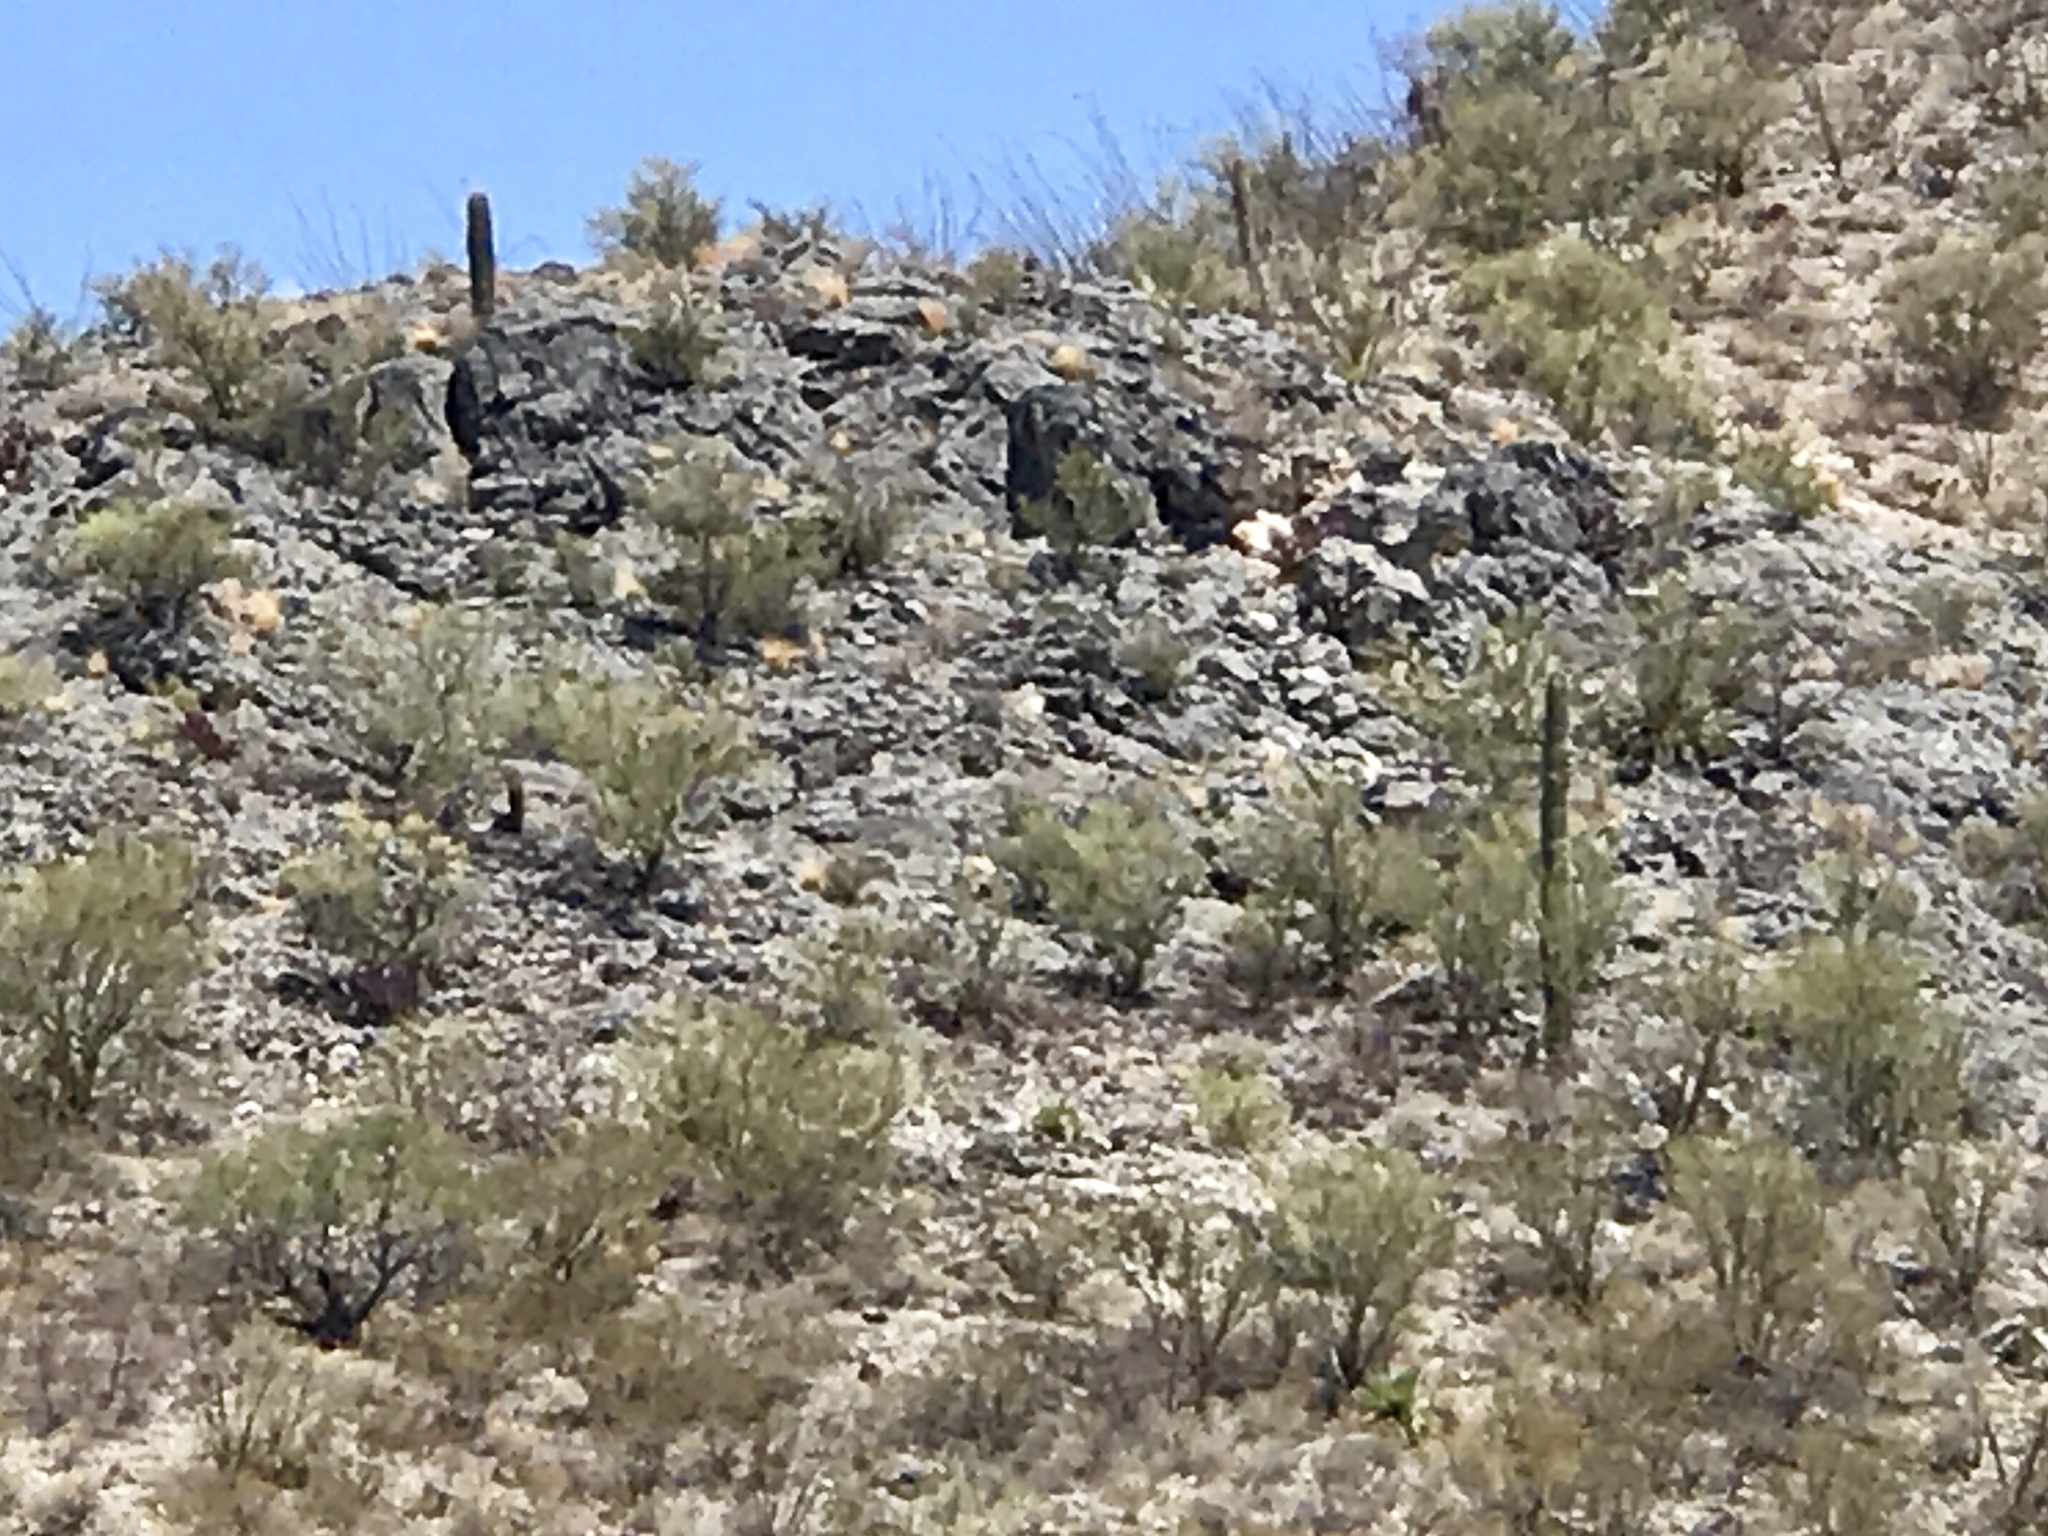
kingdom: Plantae
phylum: Tracheophyta
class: Magnoliopsida
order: Caryophyllales
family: Cactaceae
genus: Carnegiea
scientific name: Carnegiea gigantea
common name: Saguaro
